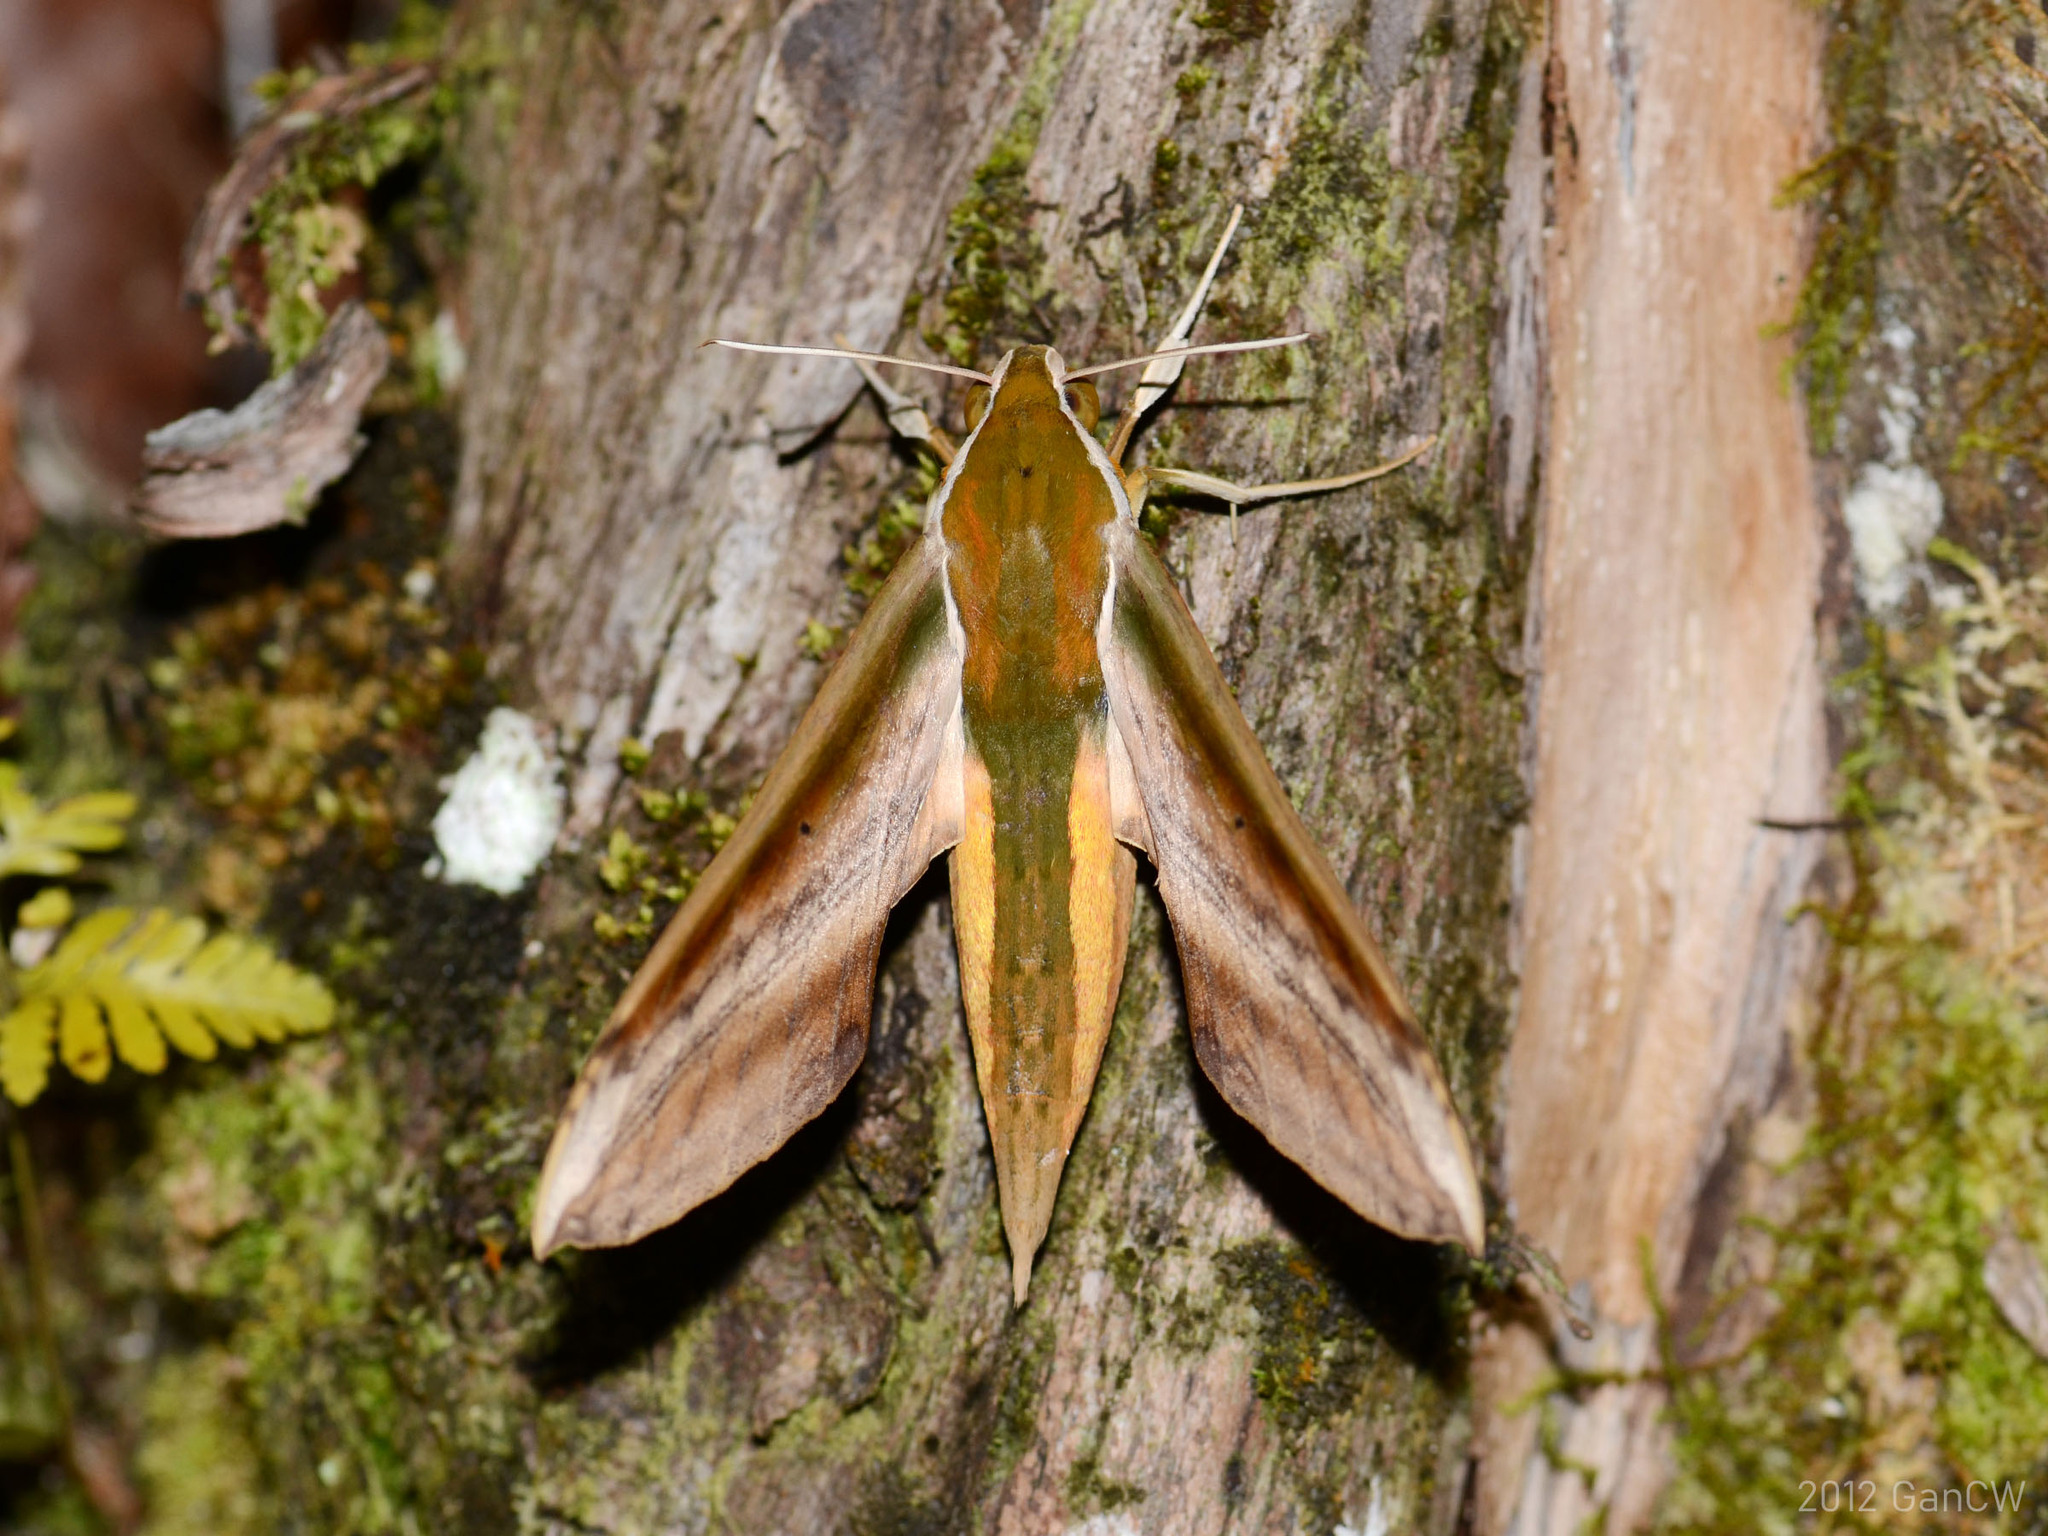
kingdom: Animalia
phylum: Arthropoda
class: Insecta
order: Lepidoptera
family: Sphingidae
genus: Theretra
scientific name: Theretra nessus
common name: Yam hawk moth
